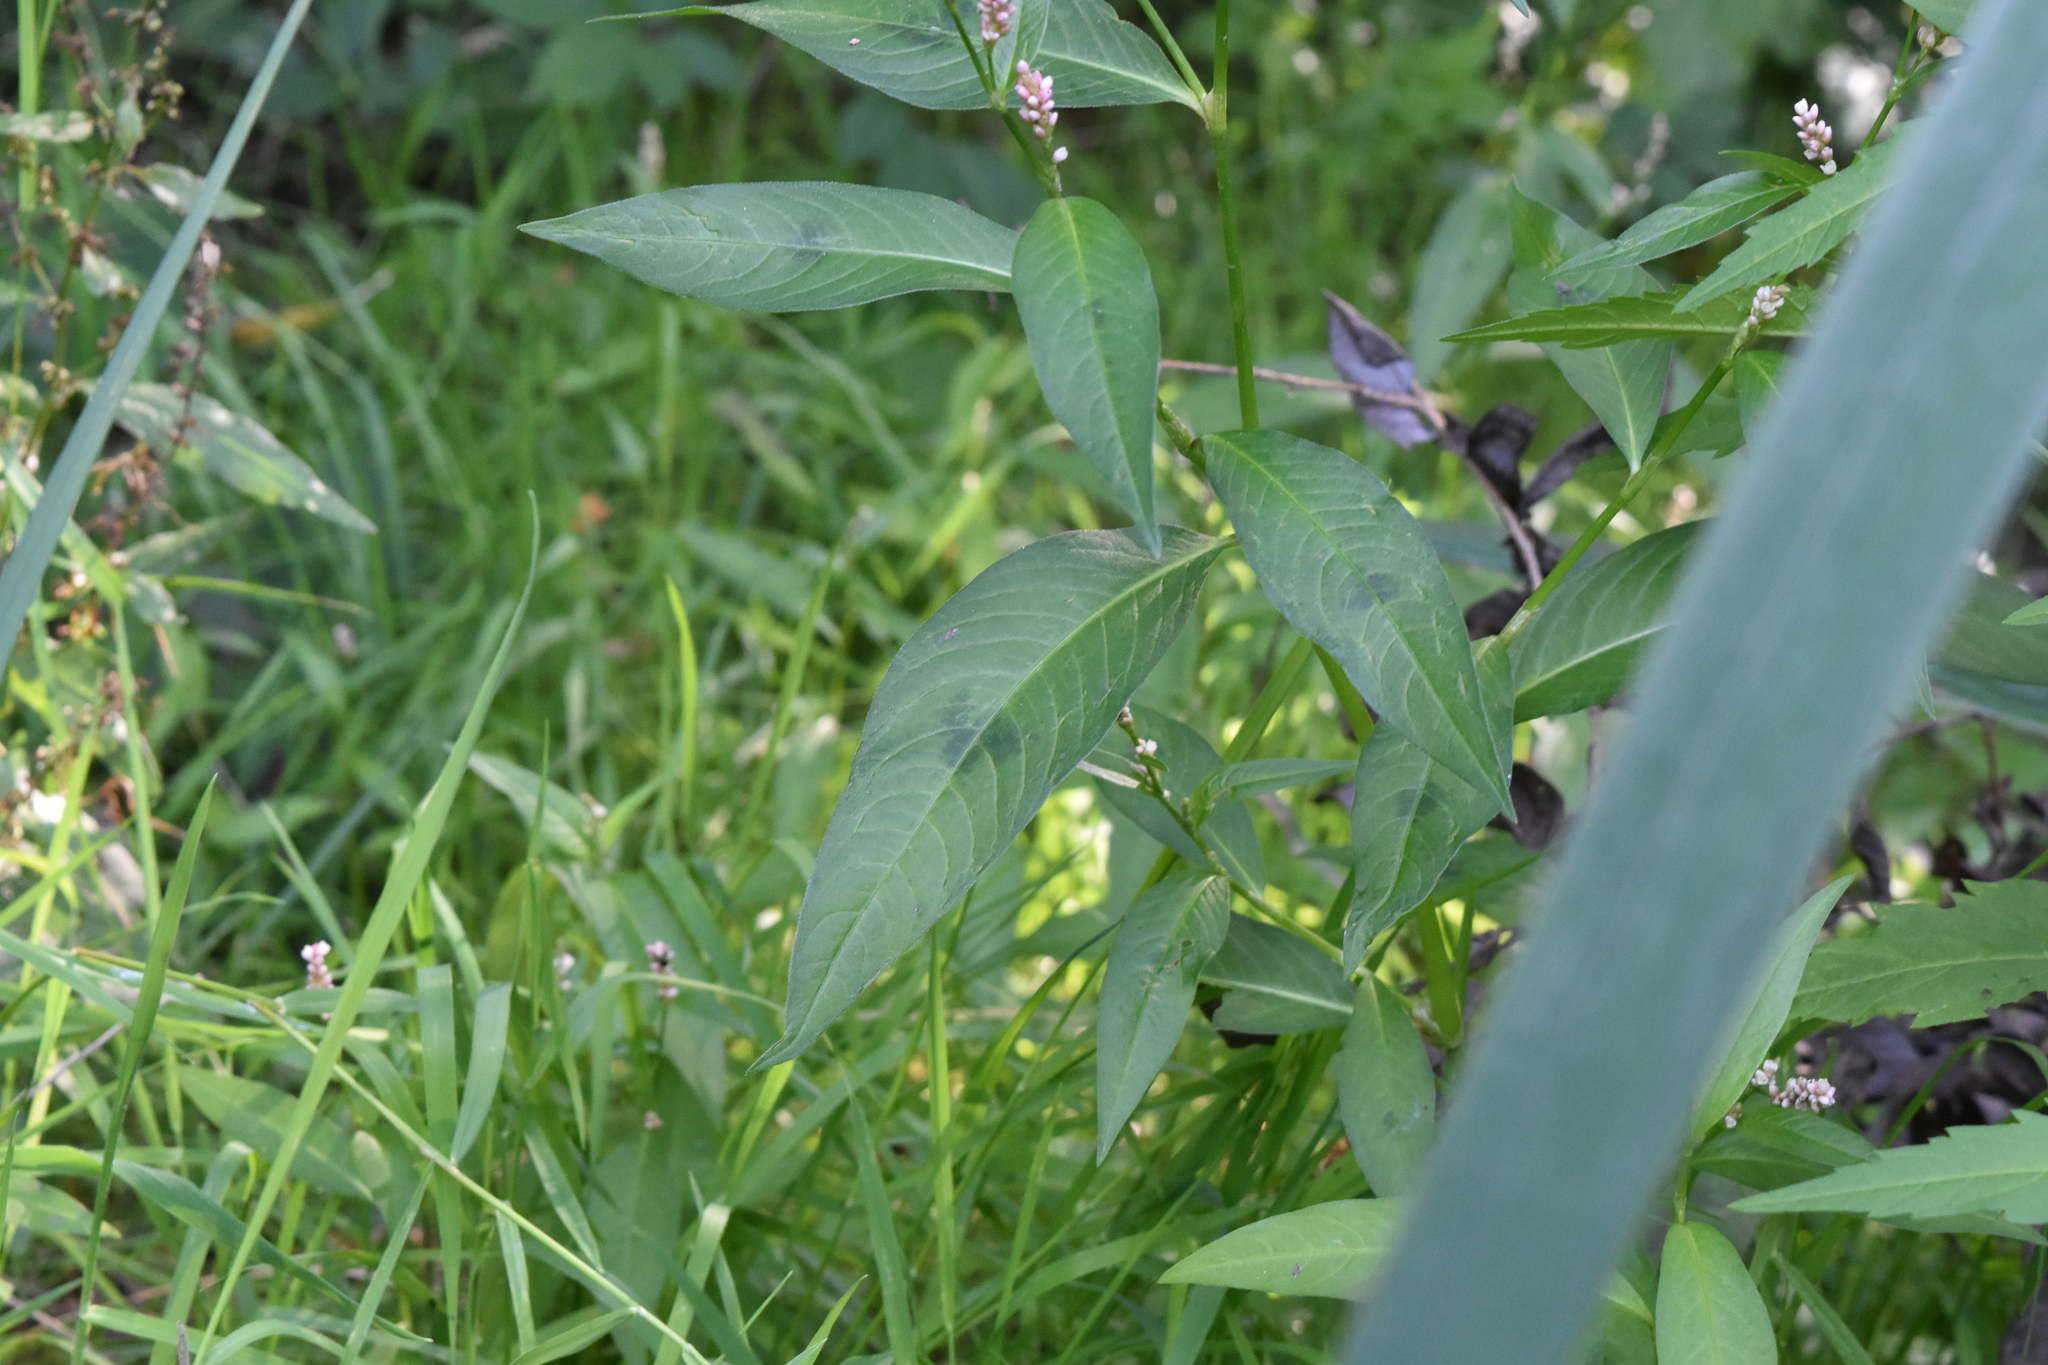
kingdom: Plantae
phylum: Tracheophyta
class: Magnoliopsida
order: Caryophyllales
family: Polygonaceae
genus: Persicaria
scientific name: Persicaria maculosa
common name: Redshank
